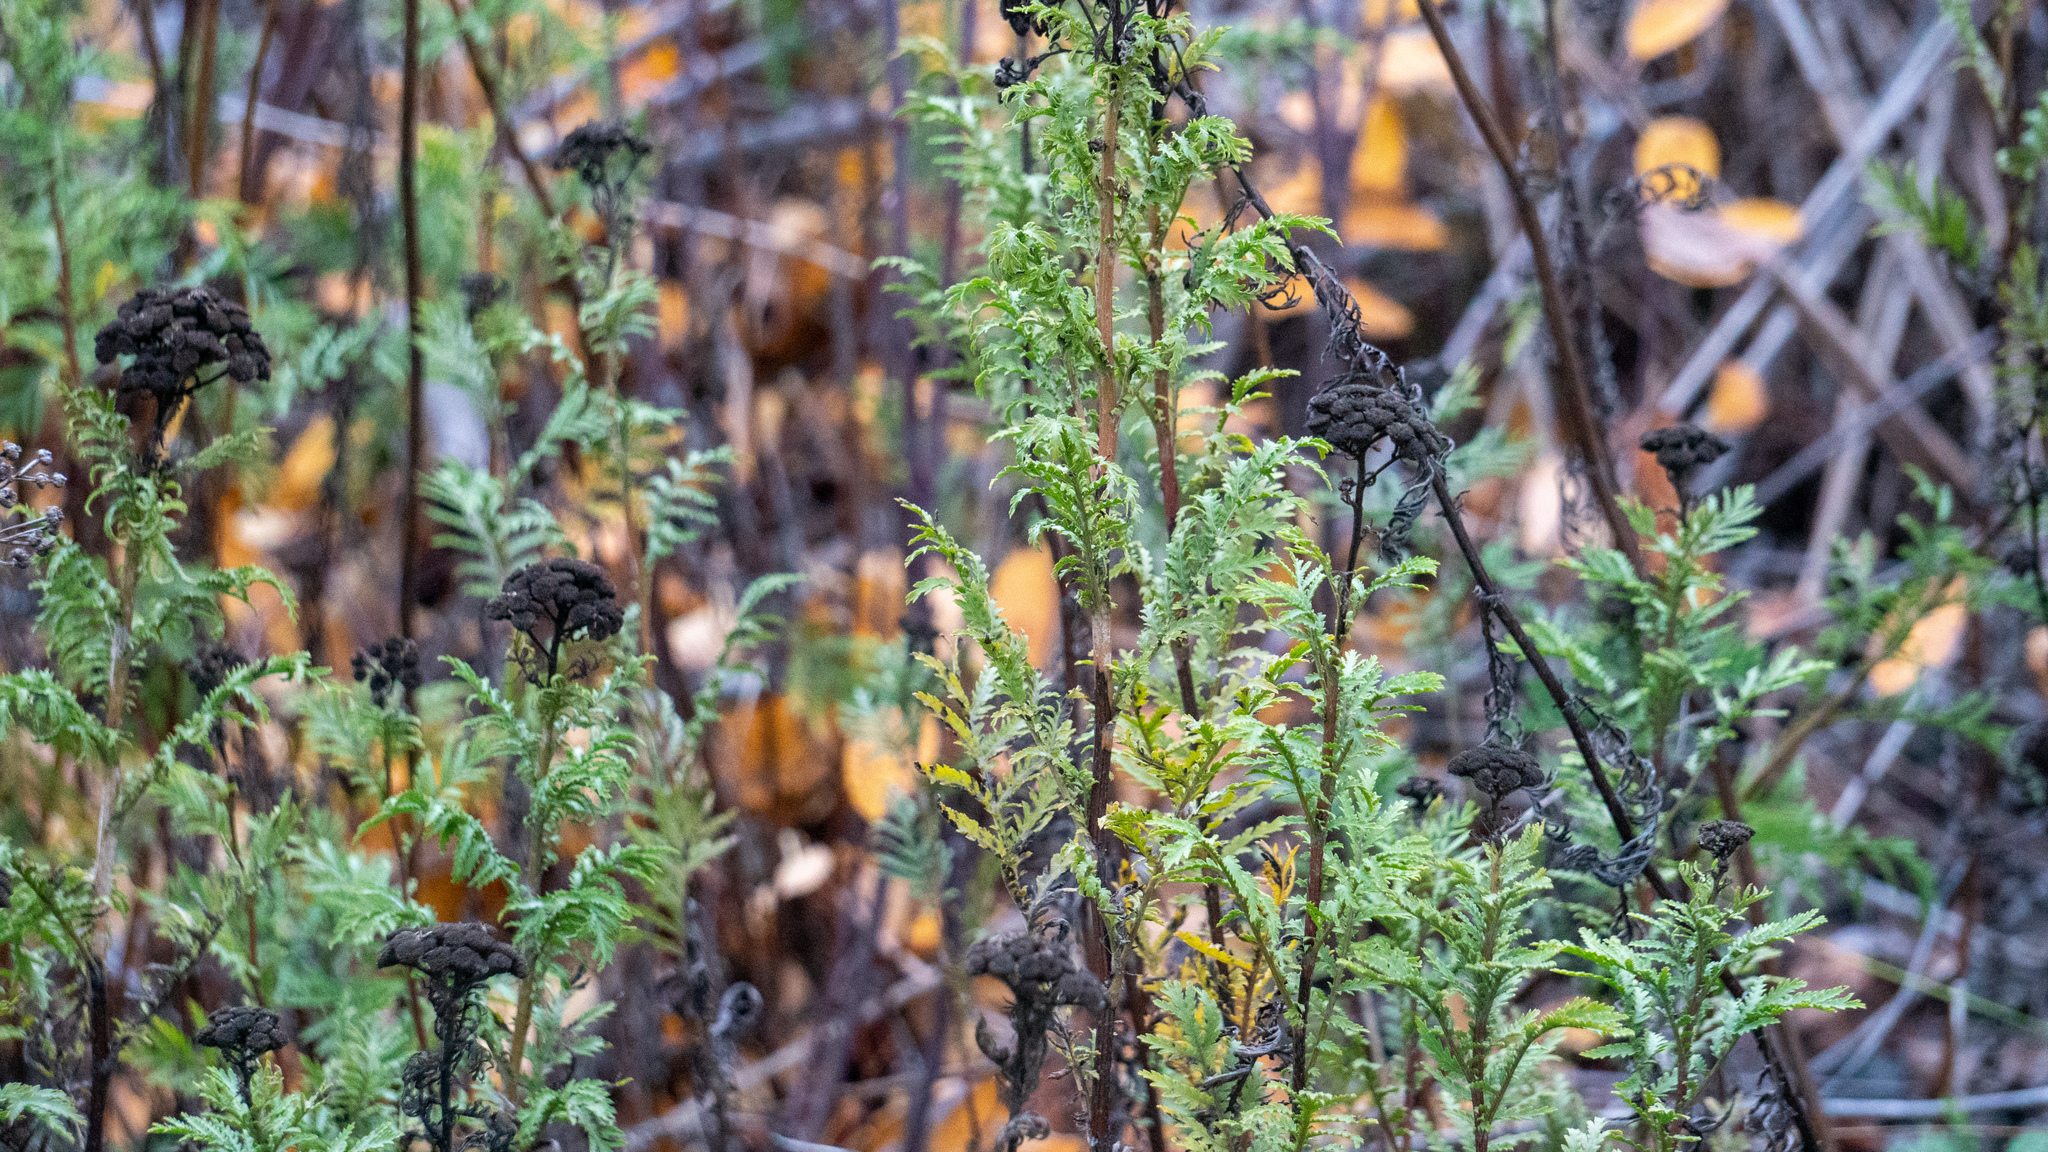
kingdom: Plantae
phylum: Tracheophyta
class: Magnoliopsida
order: Asterales
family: Asteraceae
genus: Tanacetum
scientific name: Tanacetum vulgare
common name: Common tansy
